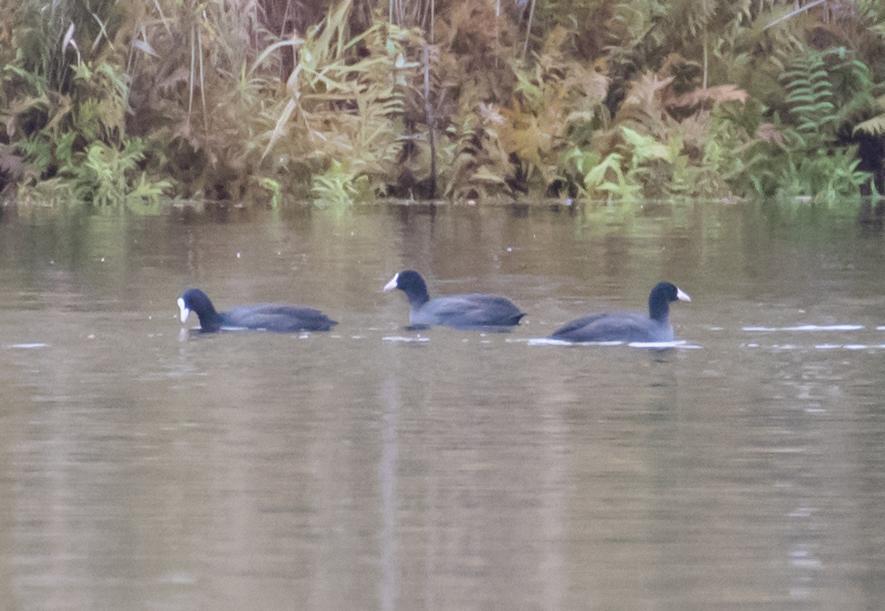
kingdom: Animalia
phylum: Chordata
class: Aves
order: Gruiformes
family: Rallidae
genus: Fulica
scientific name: Fulica atra
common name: Eurasian coot
